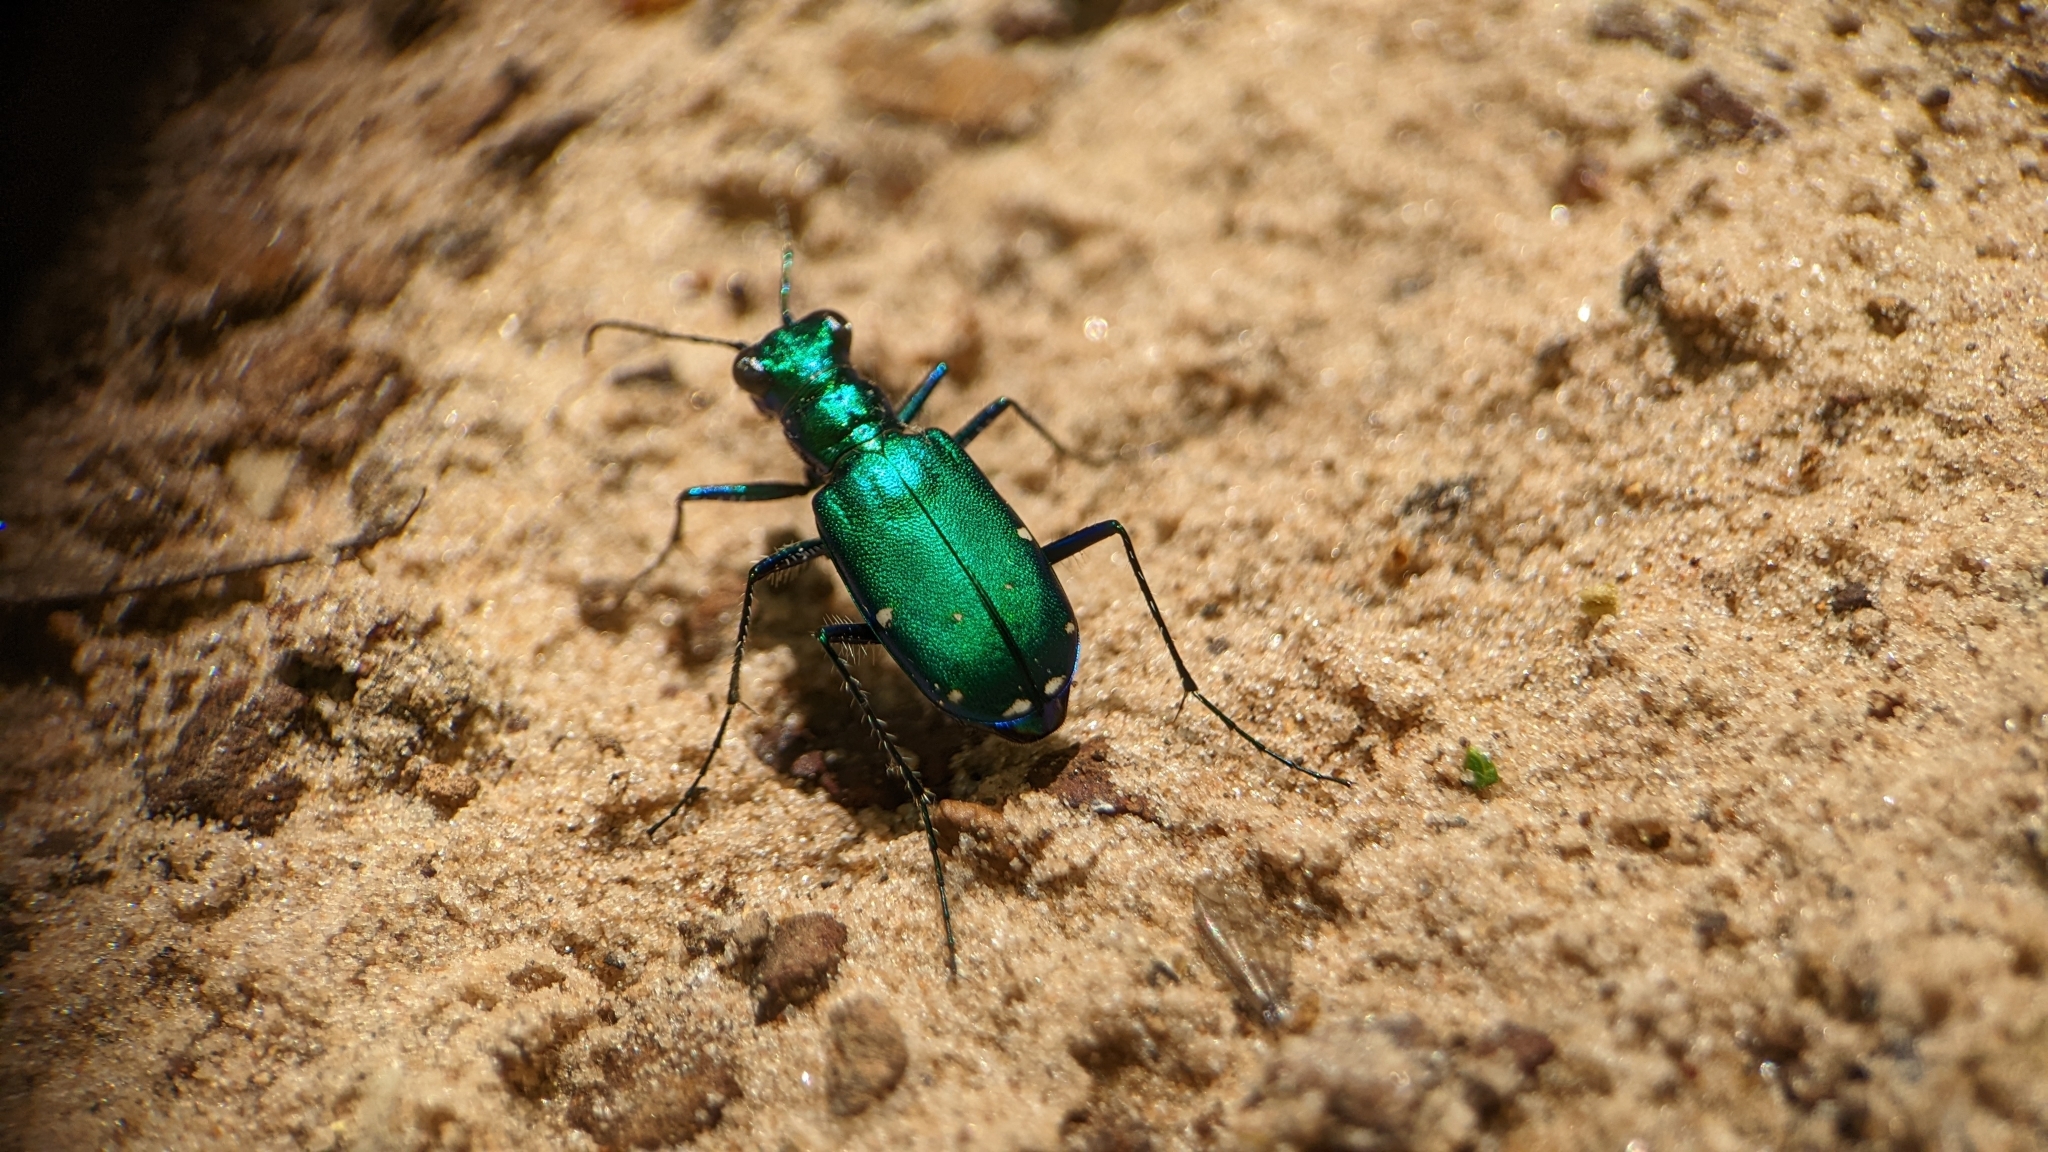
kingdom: Animalia
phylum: Arthropoda
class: Insecta
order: Coleoptera
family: Carabidae
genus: Cicindela
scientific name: Cicindela sexguttata
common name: Six-spotted tiger beetle
